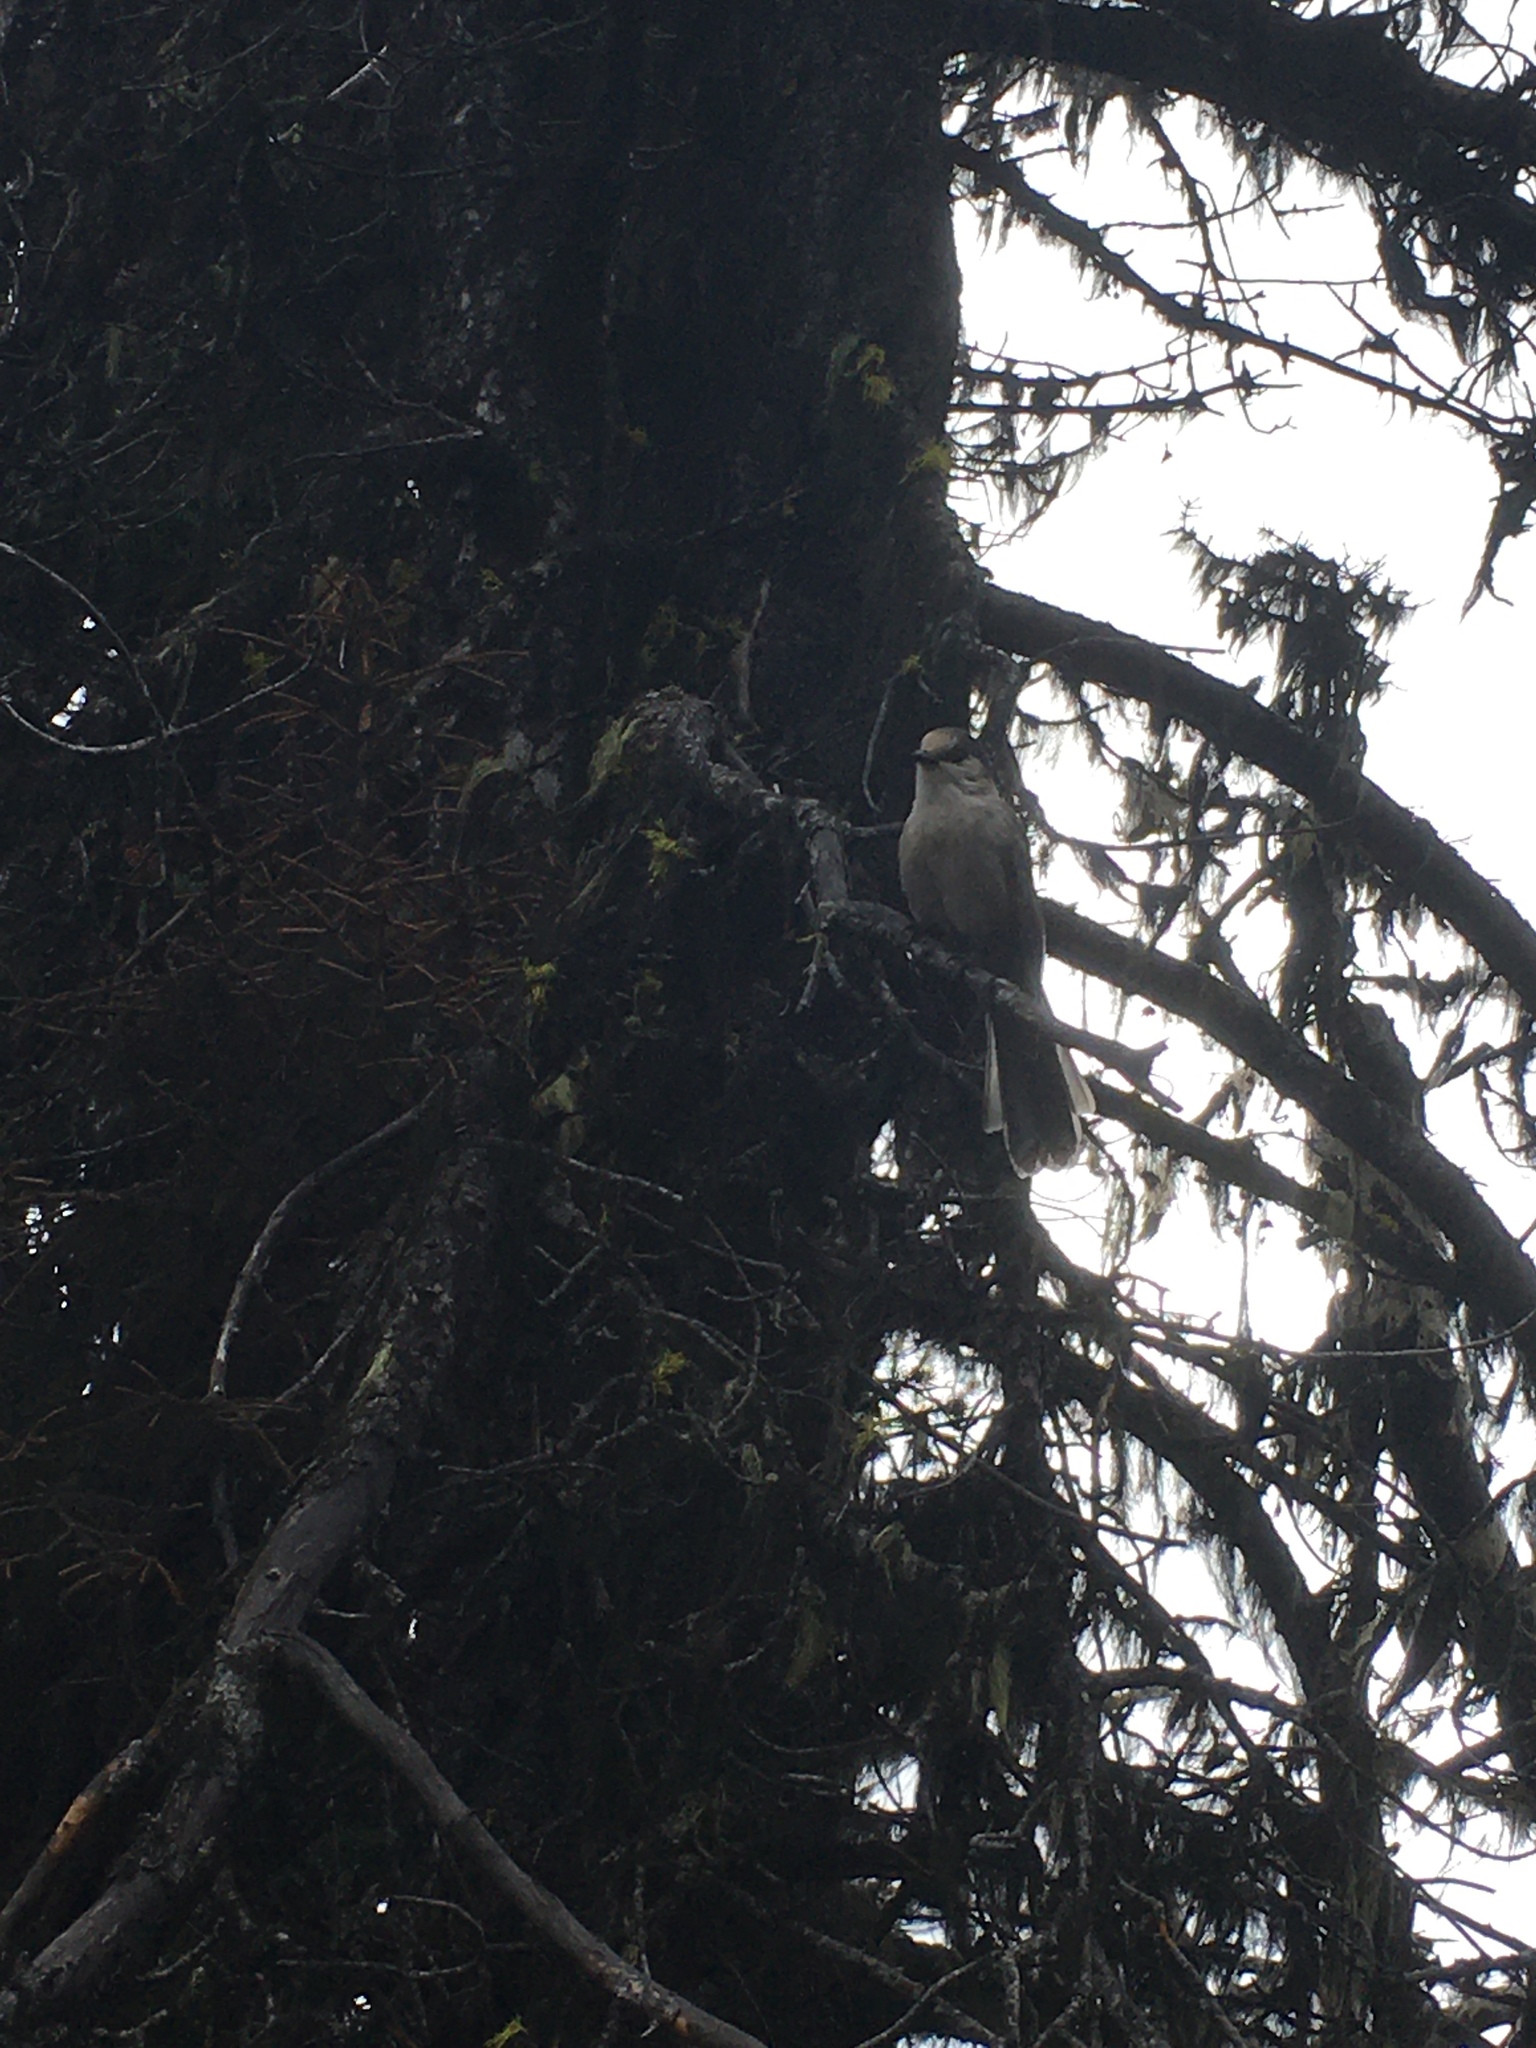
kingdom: Animalia
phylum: Chordata
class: Aves
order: Passeriformes
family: Corvidae
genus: Perisoreus
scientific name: Perisoreus canadensis
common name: Gray jay
